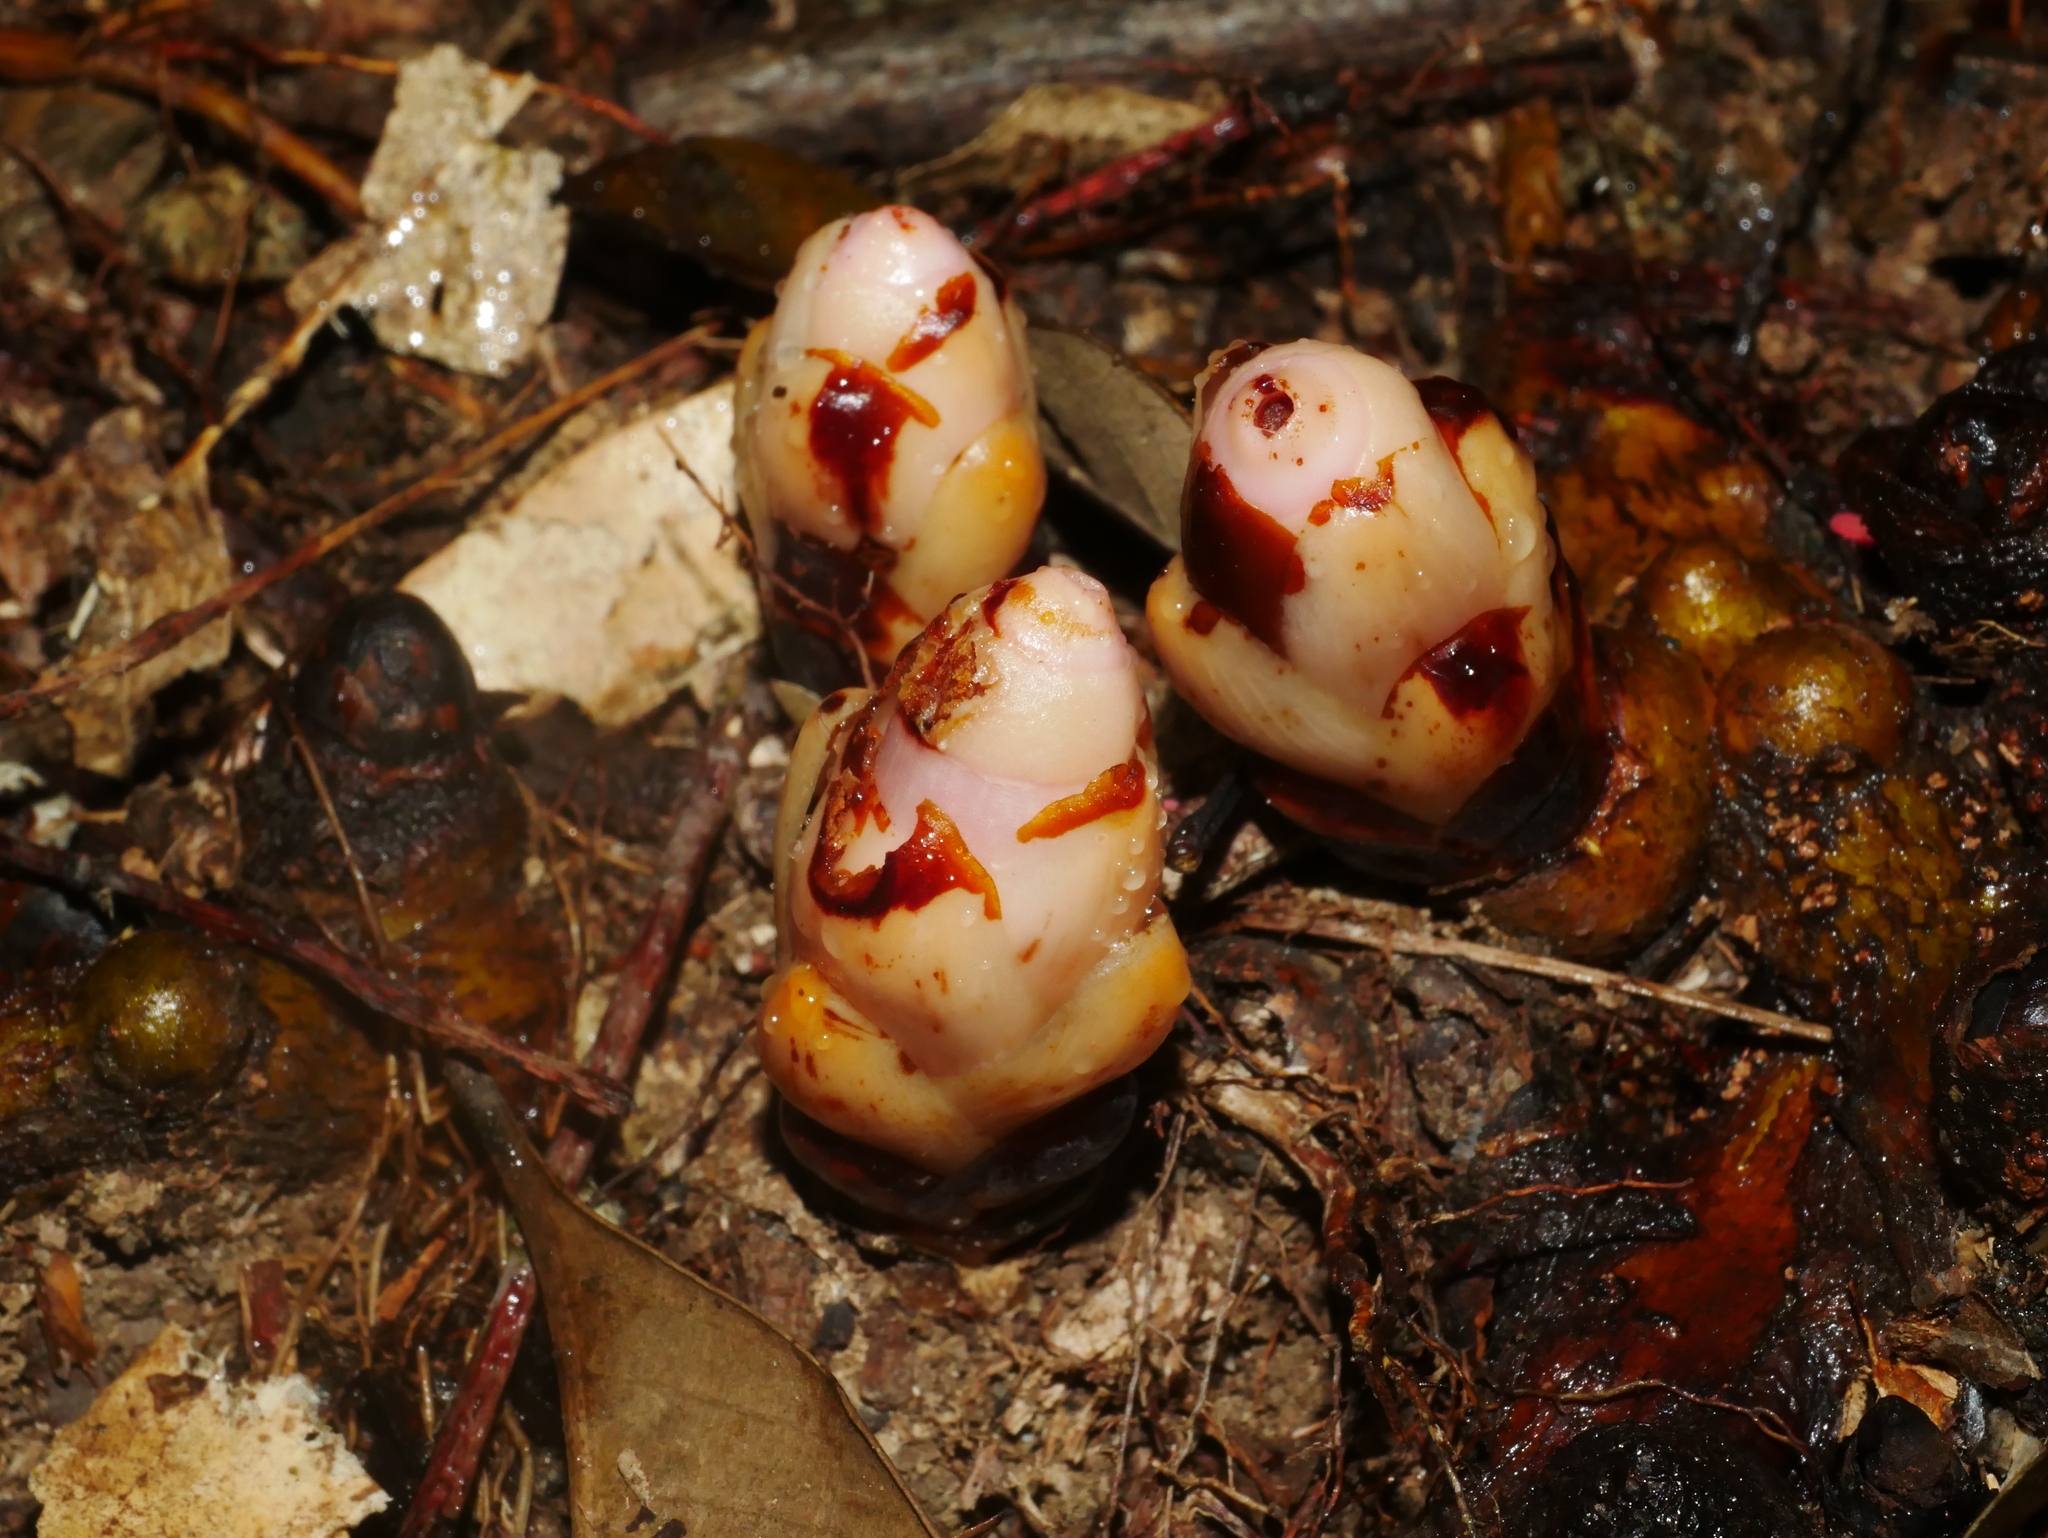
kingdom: Plantae
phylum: Tracheophyta
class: Magnoliopsida
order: Ericales
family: Mitrastemonaceae
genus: Mitrastemon
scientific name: Mitrastemon yamamotoi
